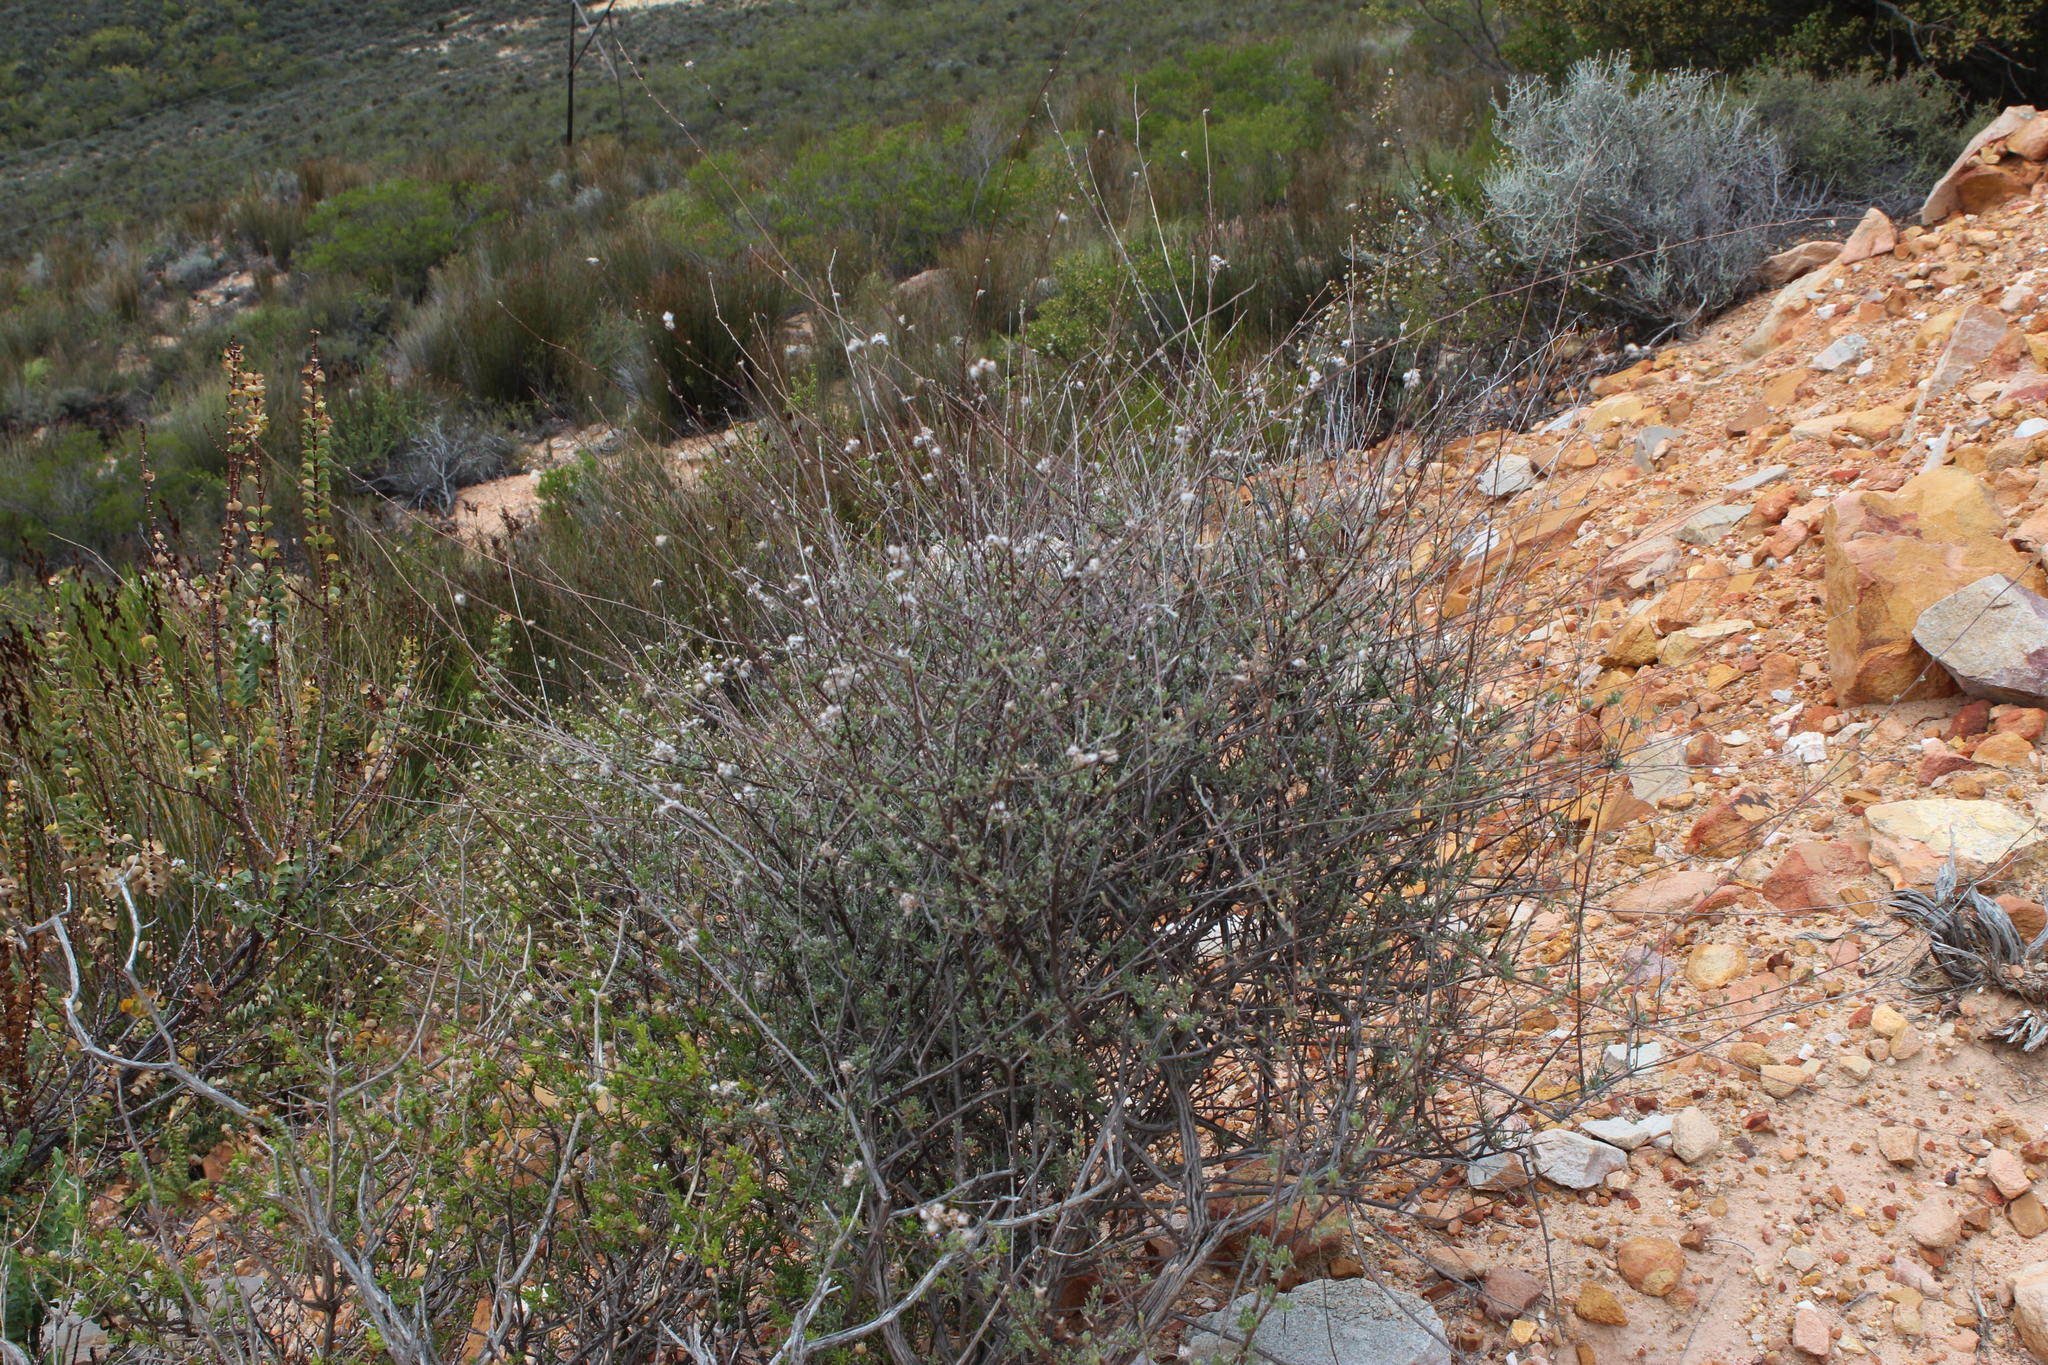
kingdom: Plantae
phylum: Tracheophyta
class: Magnoliopsida
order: Asterales
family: Asteraceae
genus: Eriocephalus
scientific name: Eriocephalus africanus
